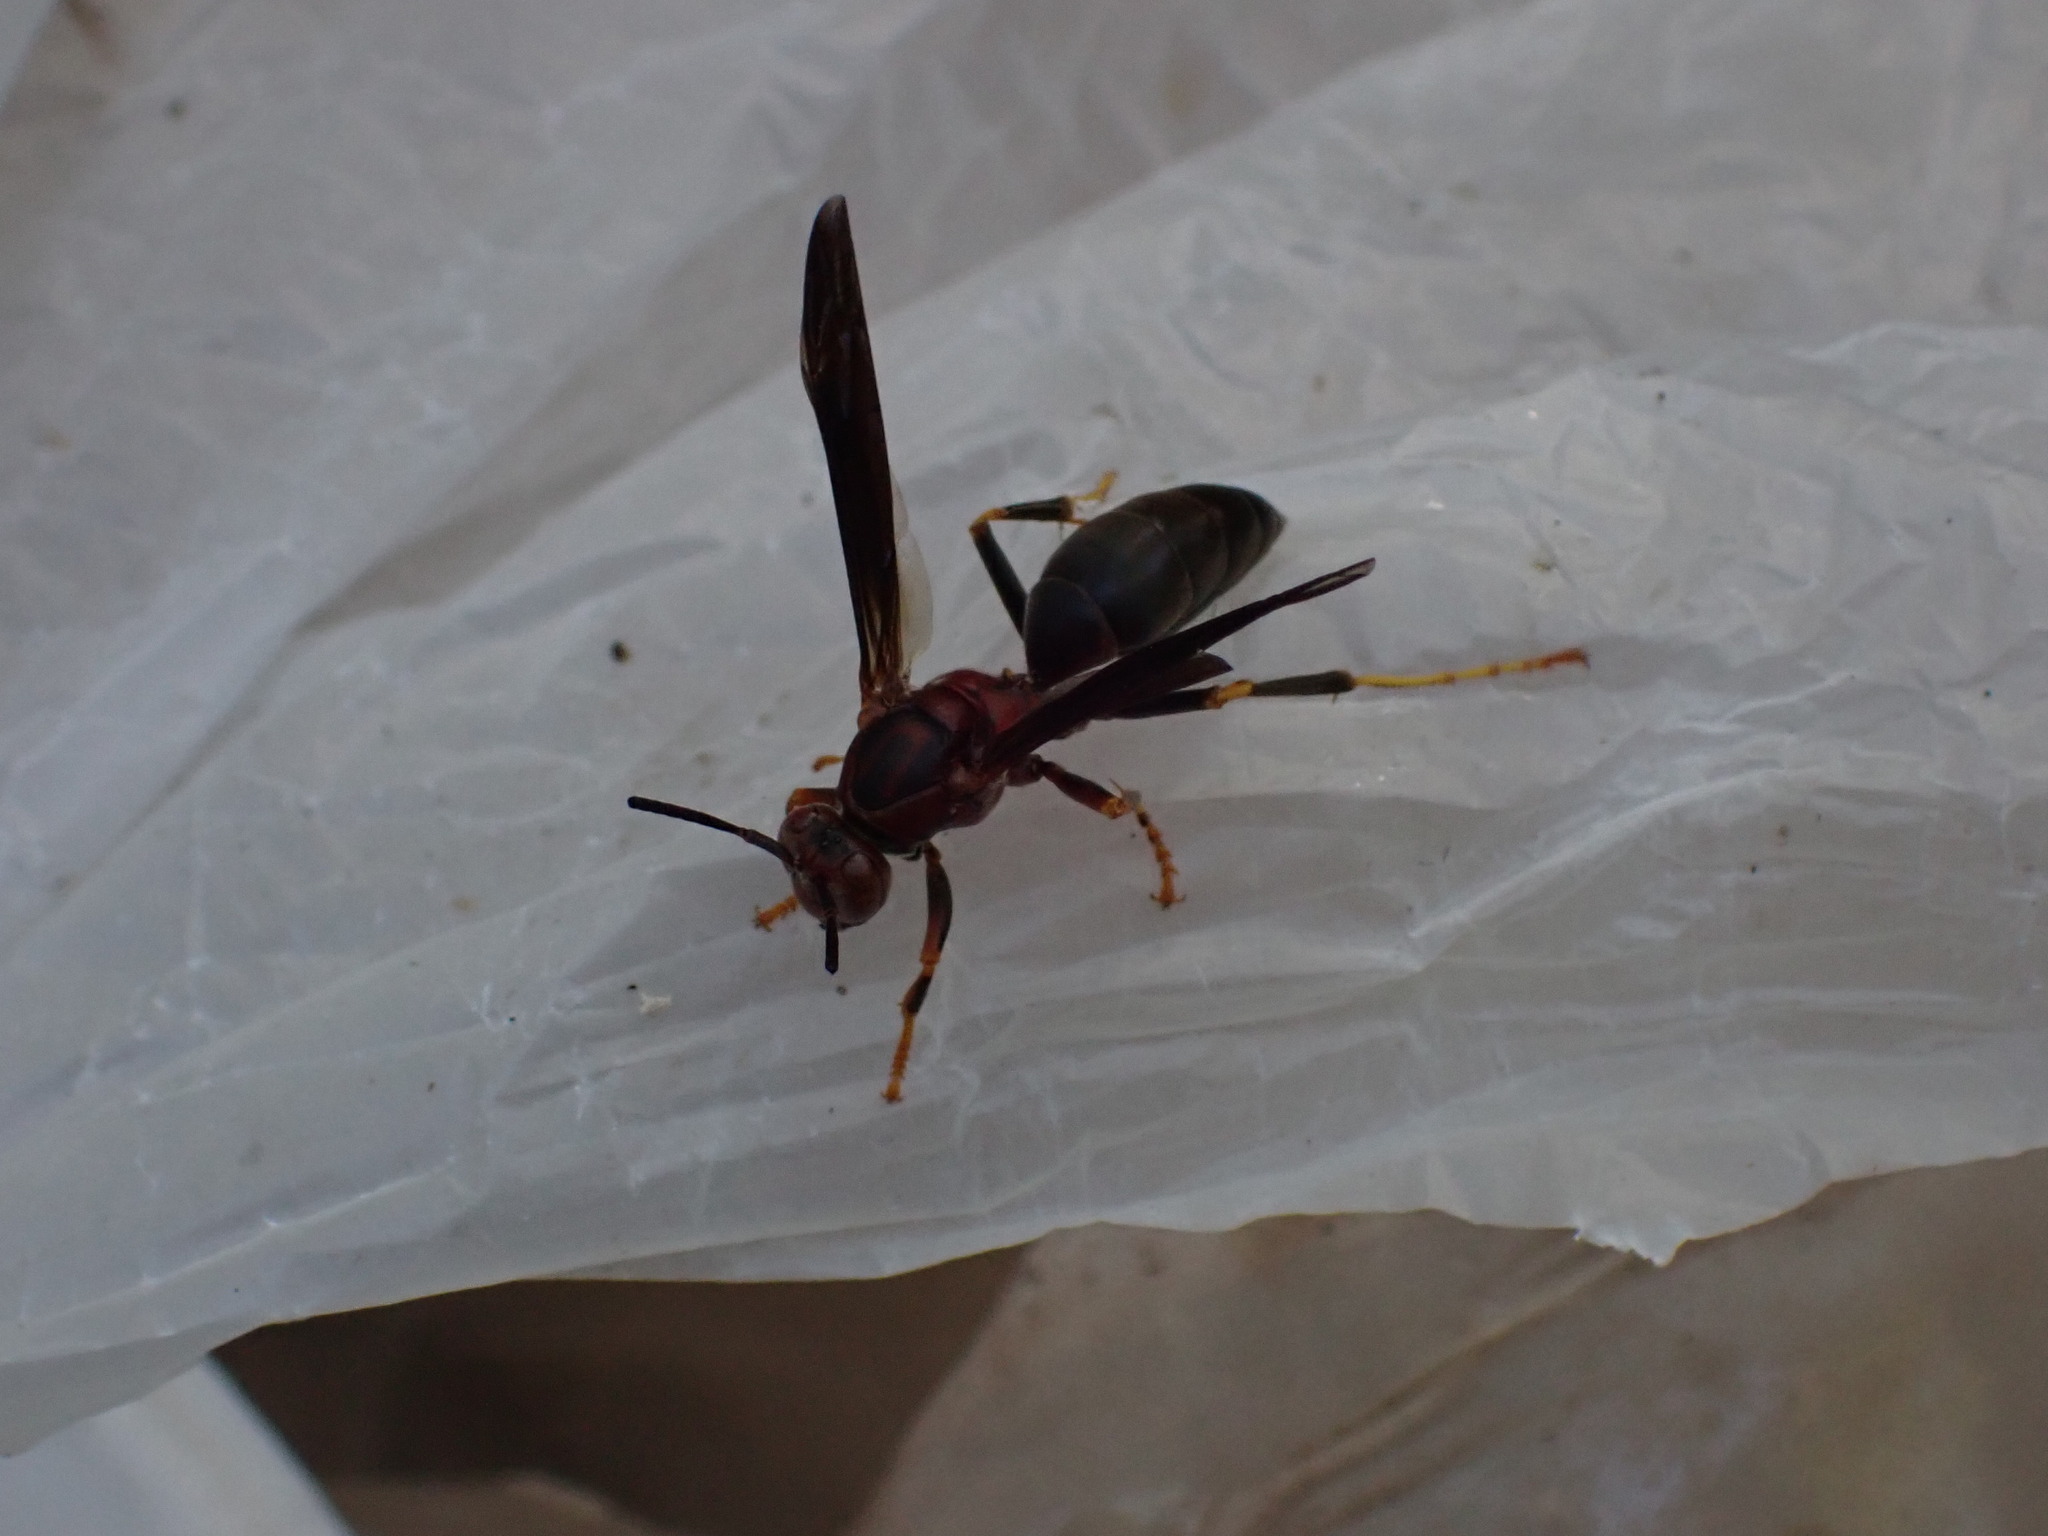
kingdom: Animalia
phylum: Arthropoda
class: Insecta
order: Hymenoptera
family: Eumenidae
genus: Polistes
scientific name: Polistes metricus
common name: Metric paper wasp
